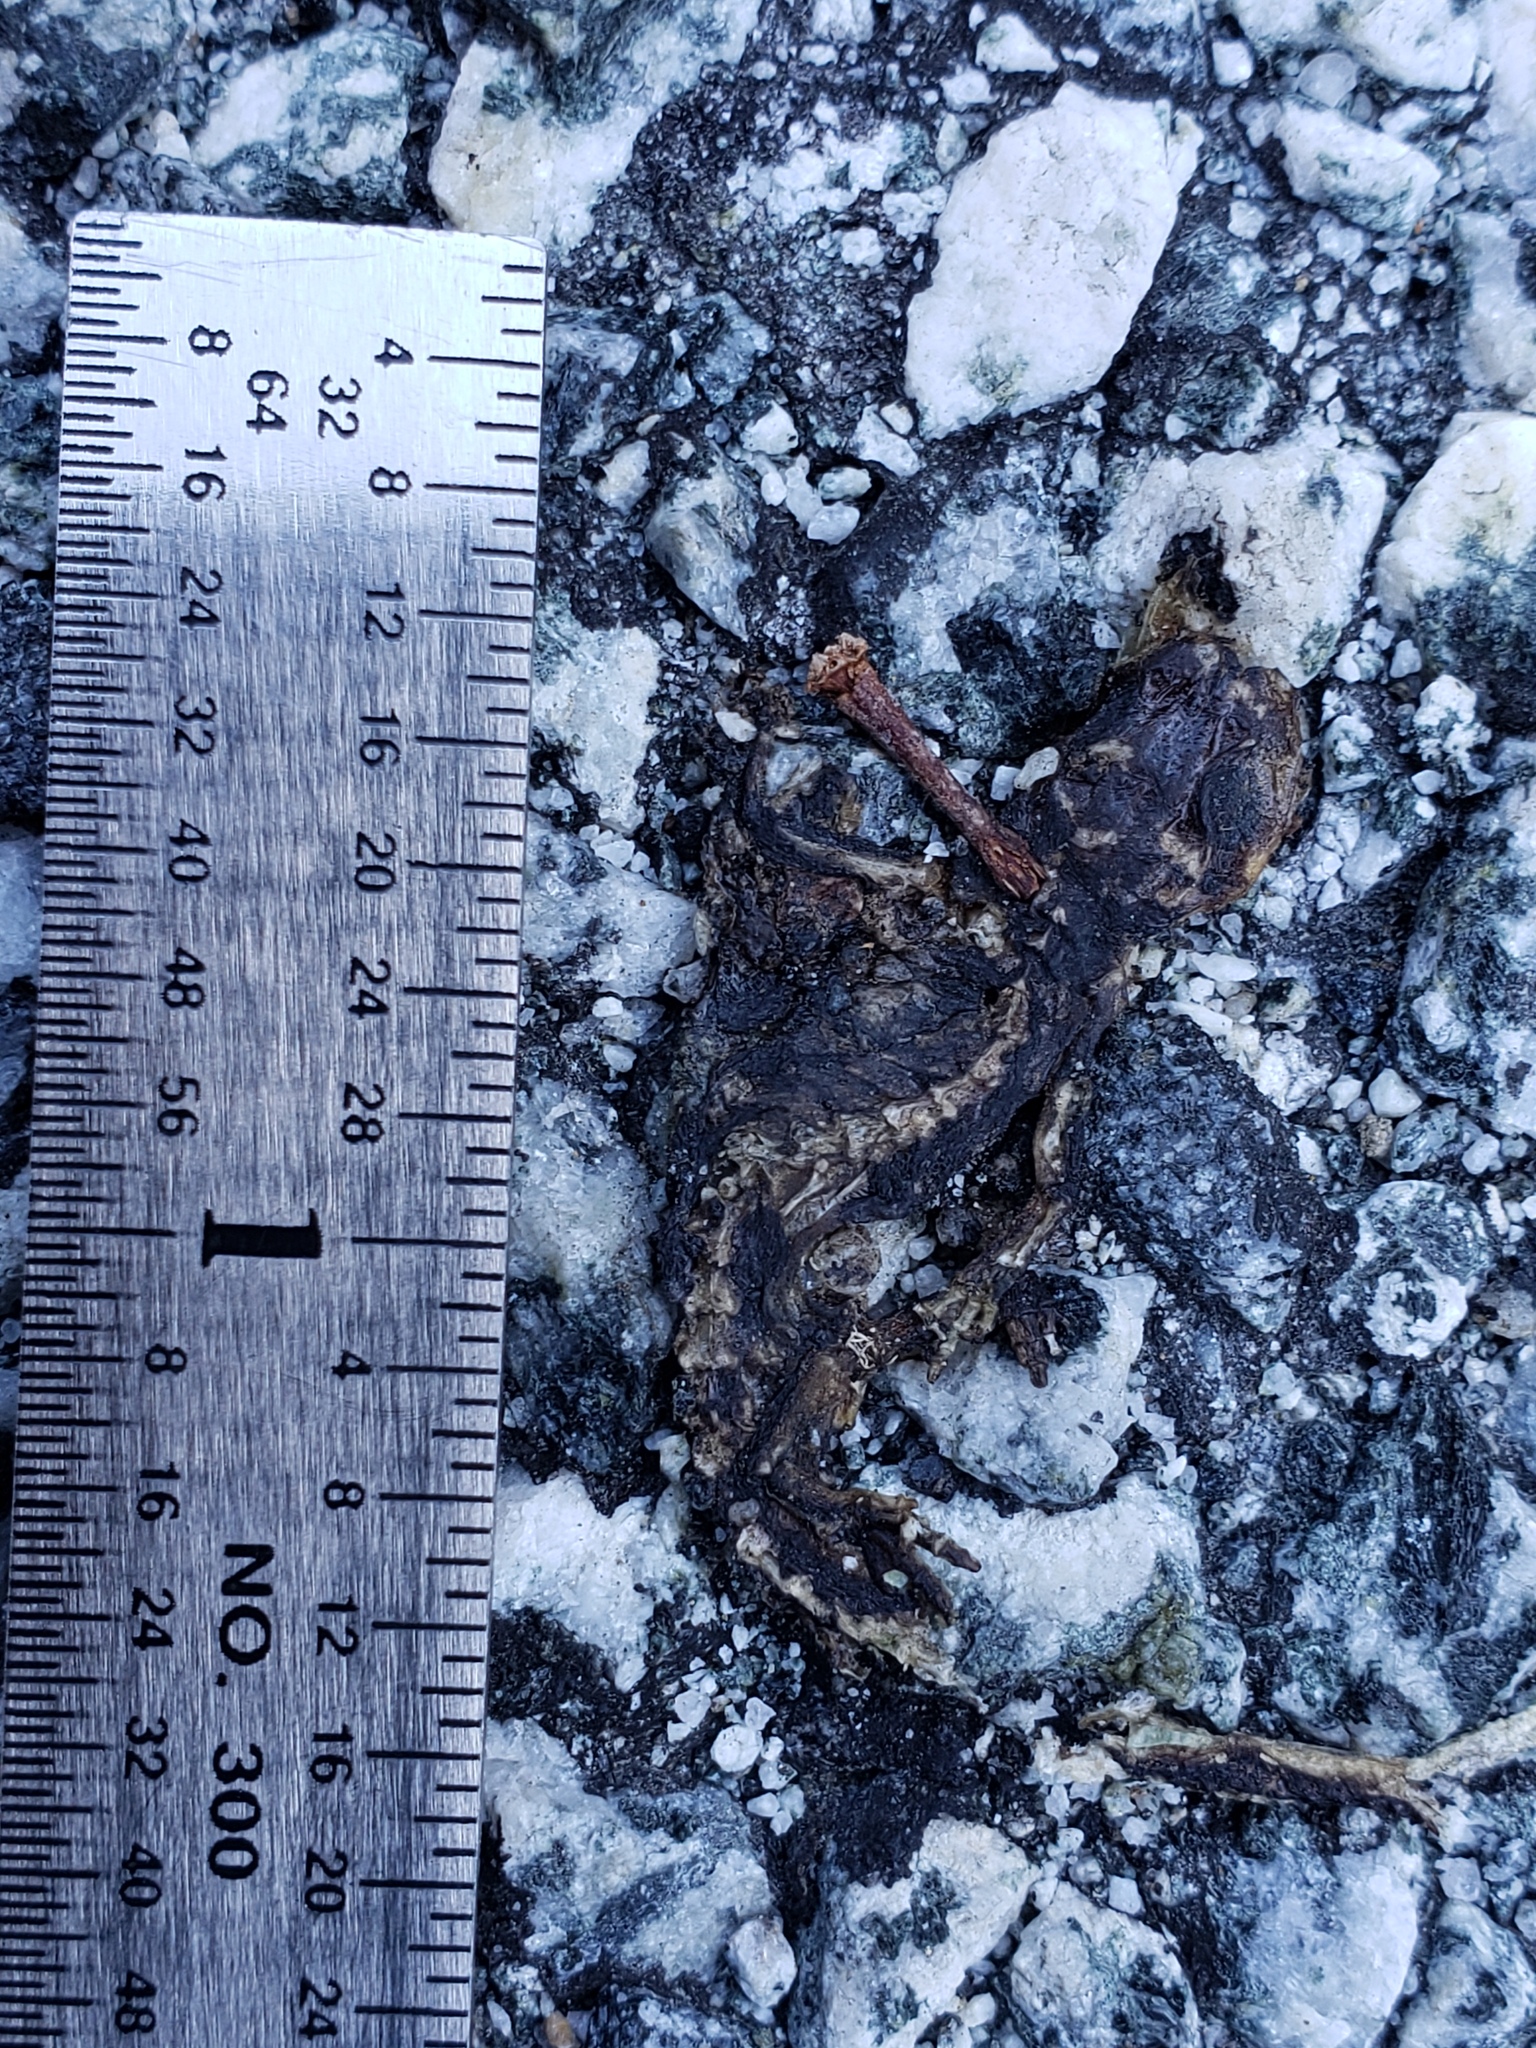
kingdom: Animalia
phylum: Chordata
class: Amphibia
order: Caudata
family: Salamandridae
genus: Taricha
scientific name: Taricha
